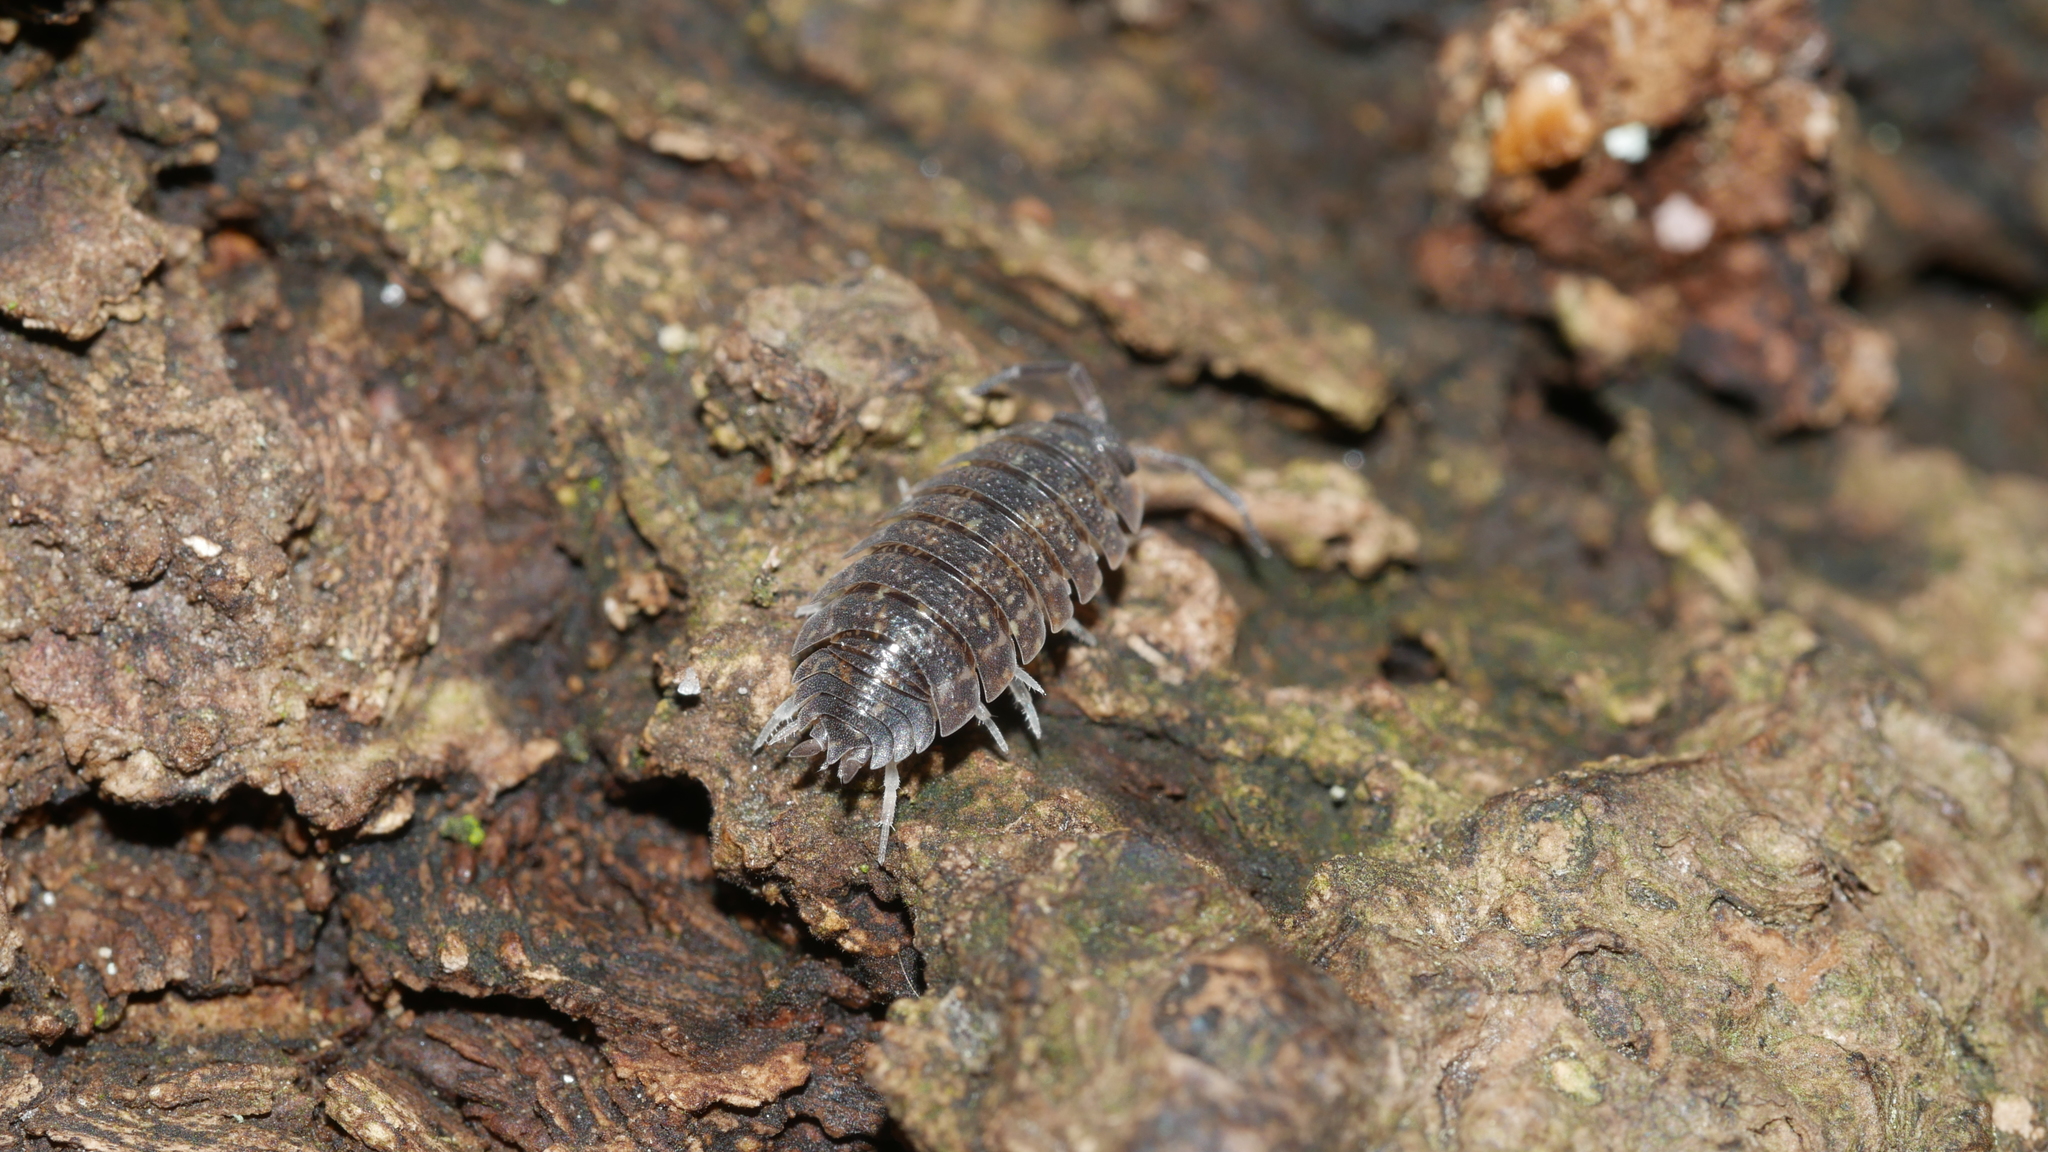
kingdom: Animalia
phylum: Arthropoda
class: Malacostraca
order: Isopoda
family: Porcellionidae
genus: Porcellio
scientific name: Porcellio scaber
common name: Common rough woodlouse
